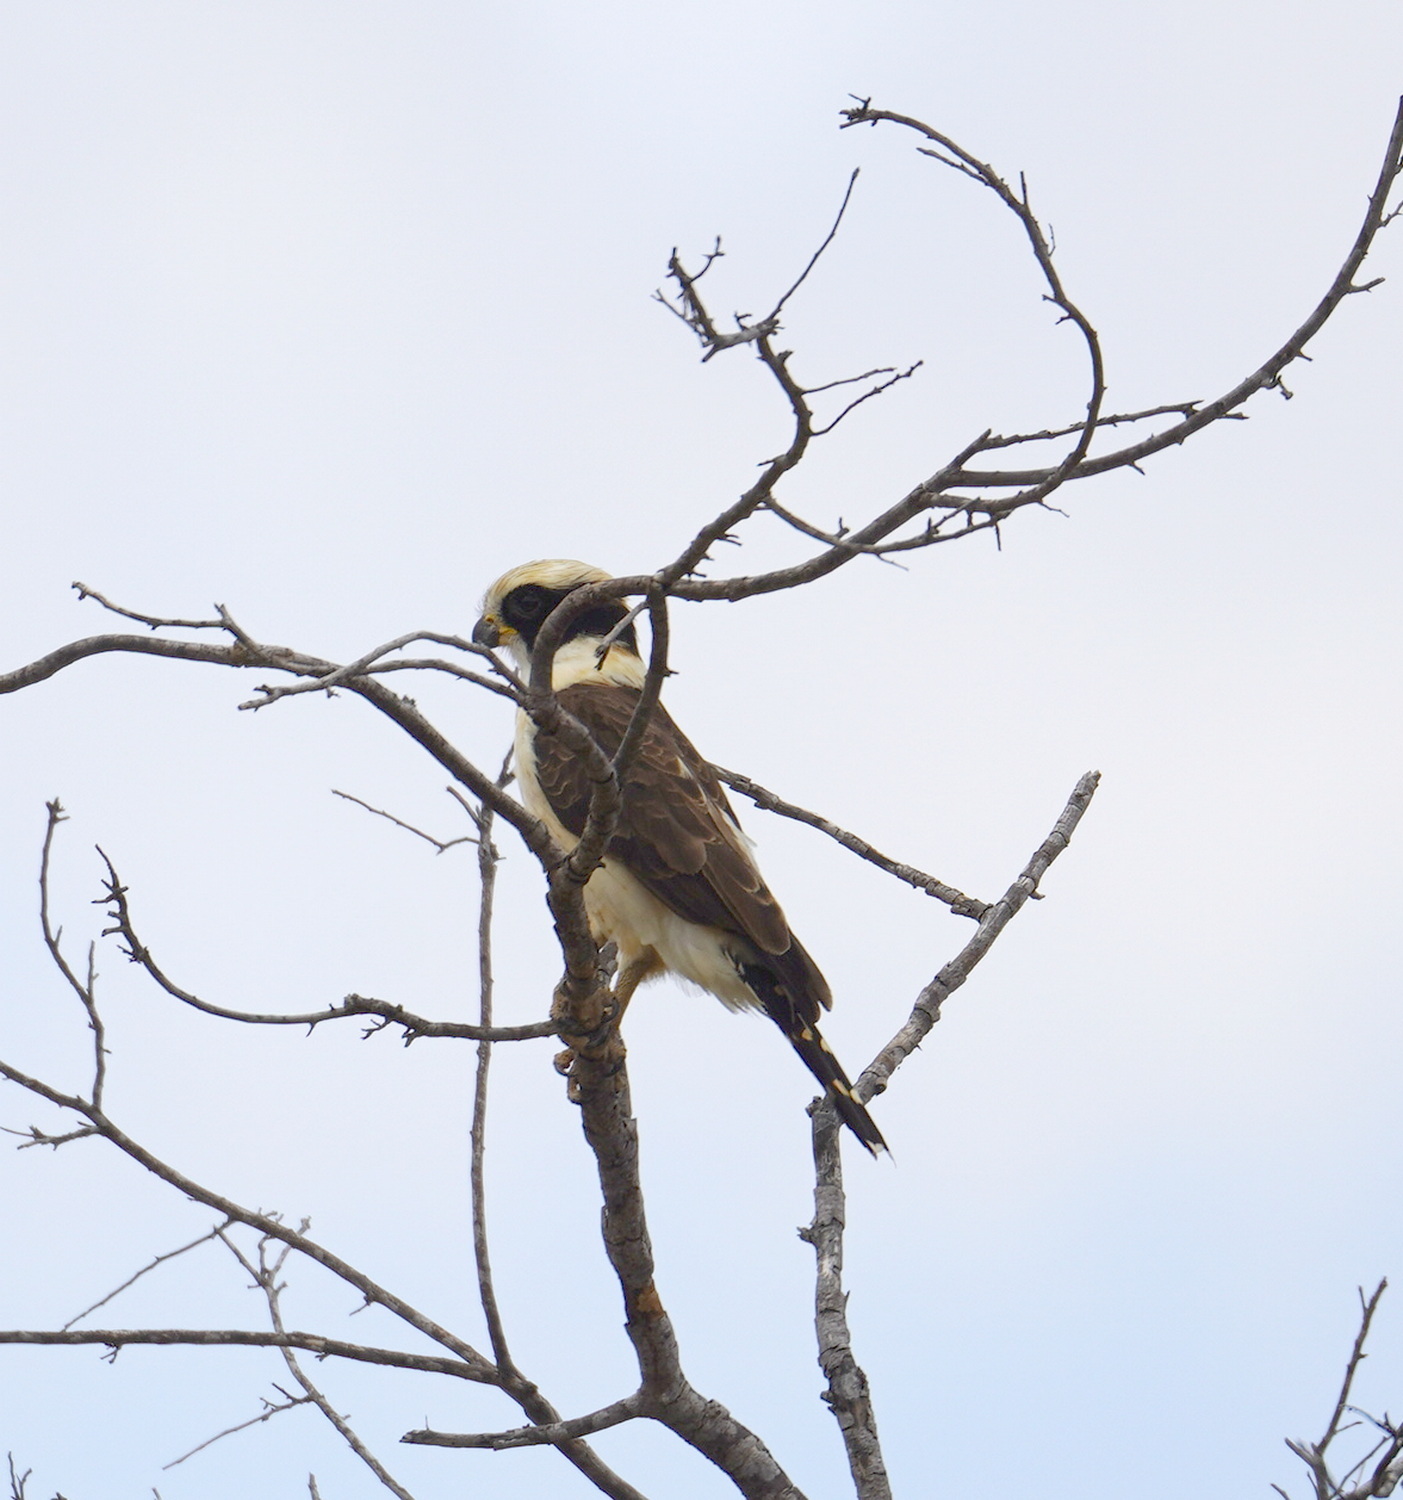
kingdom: Animalia
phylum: Chordata
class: Aves
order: Falconiformes
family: Falconidae
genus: Herpetotheres
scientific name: Herpetotheres cachinnans
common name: Laughing falcon
